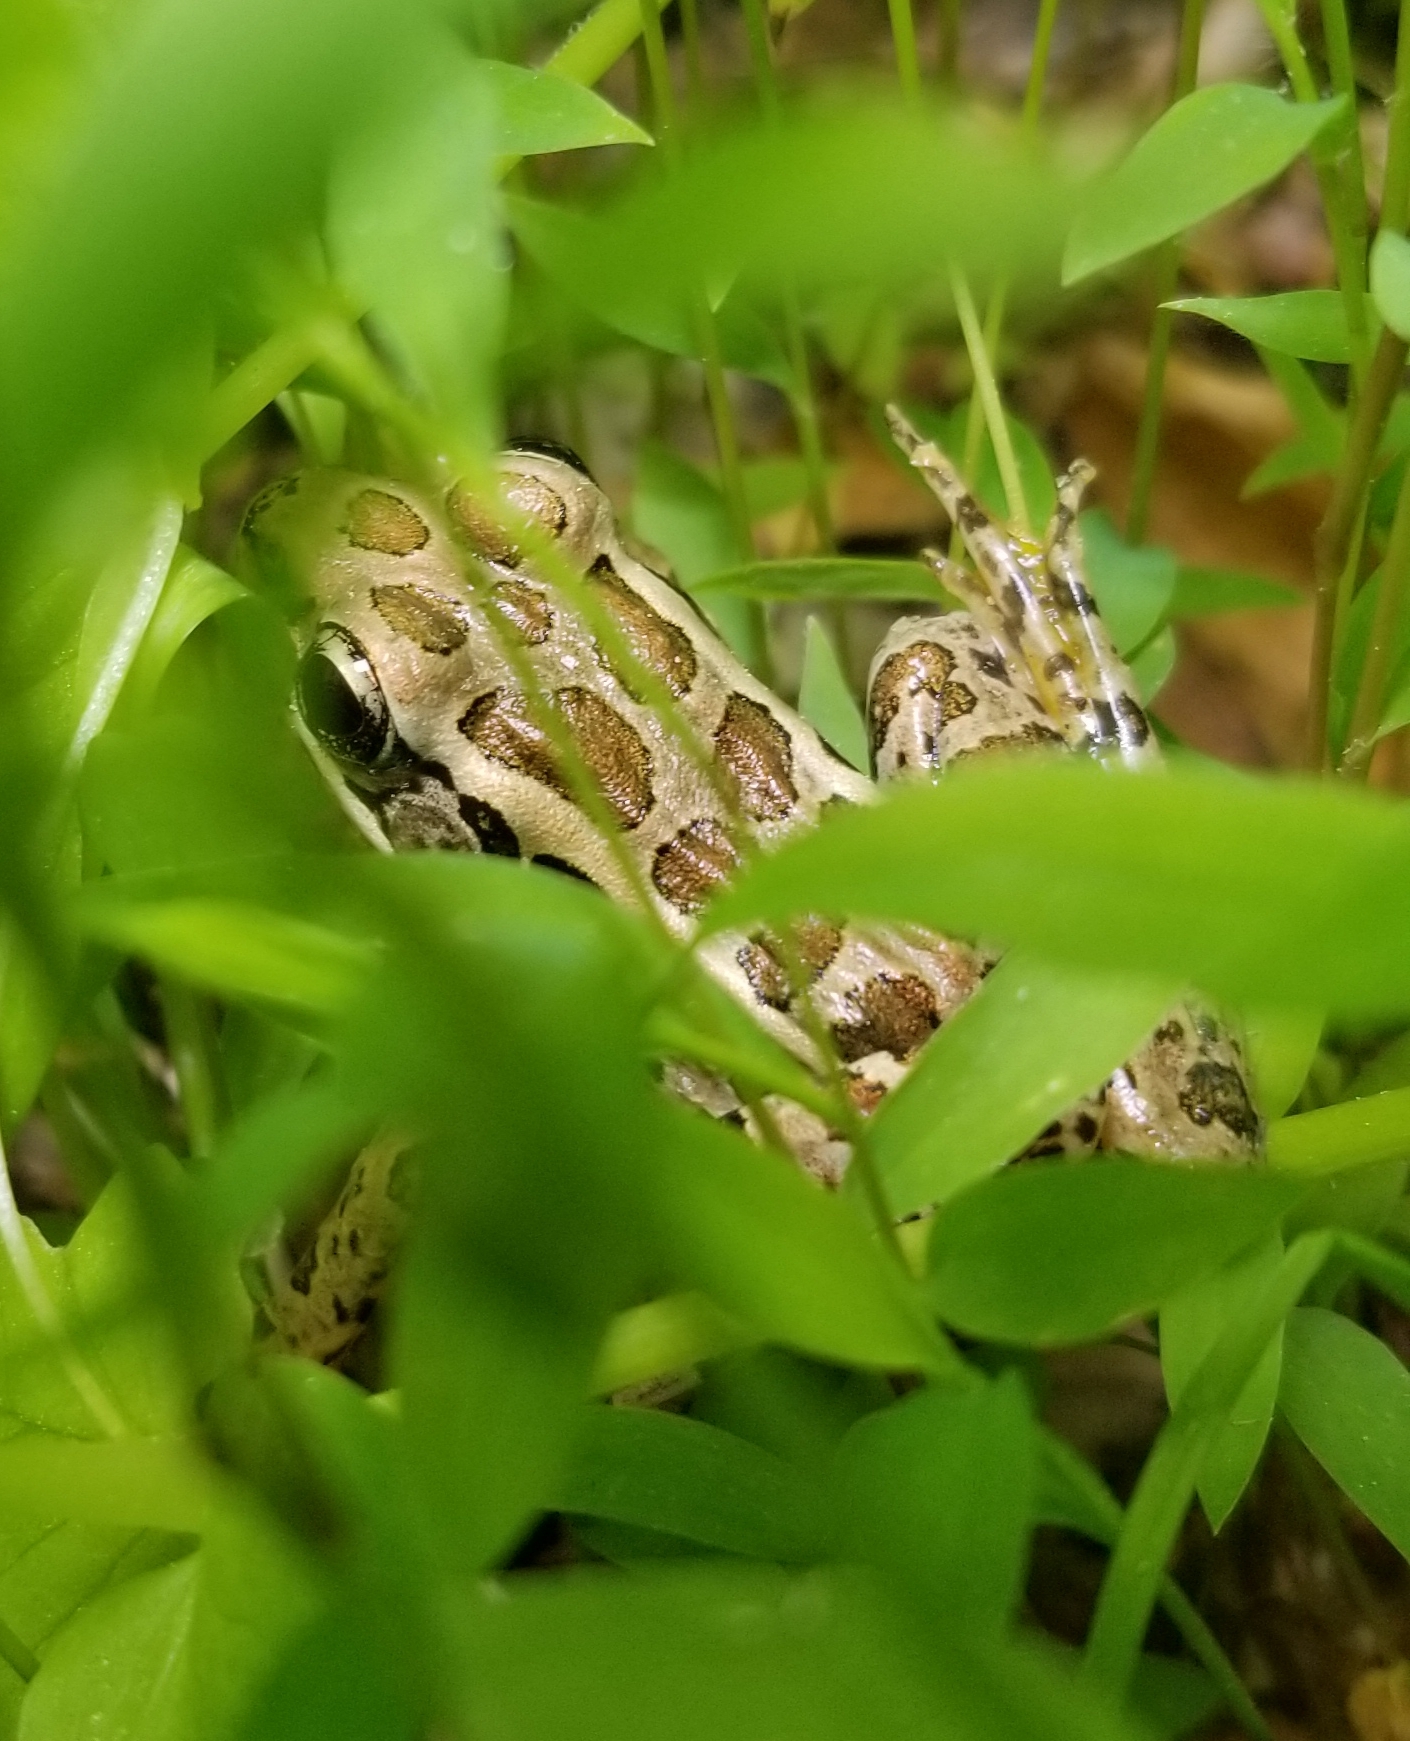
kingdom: Animalia
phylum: Chordata
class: Amphibia
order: Anura
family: Ranidae
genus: Lithobates
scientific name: Lithobates palustris
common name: Pickerel frog
